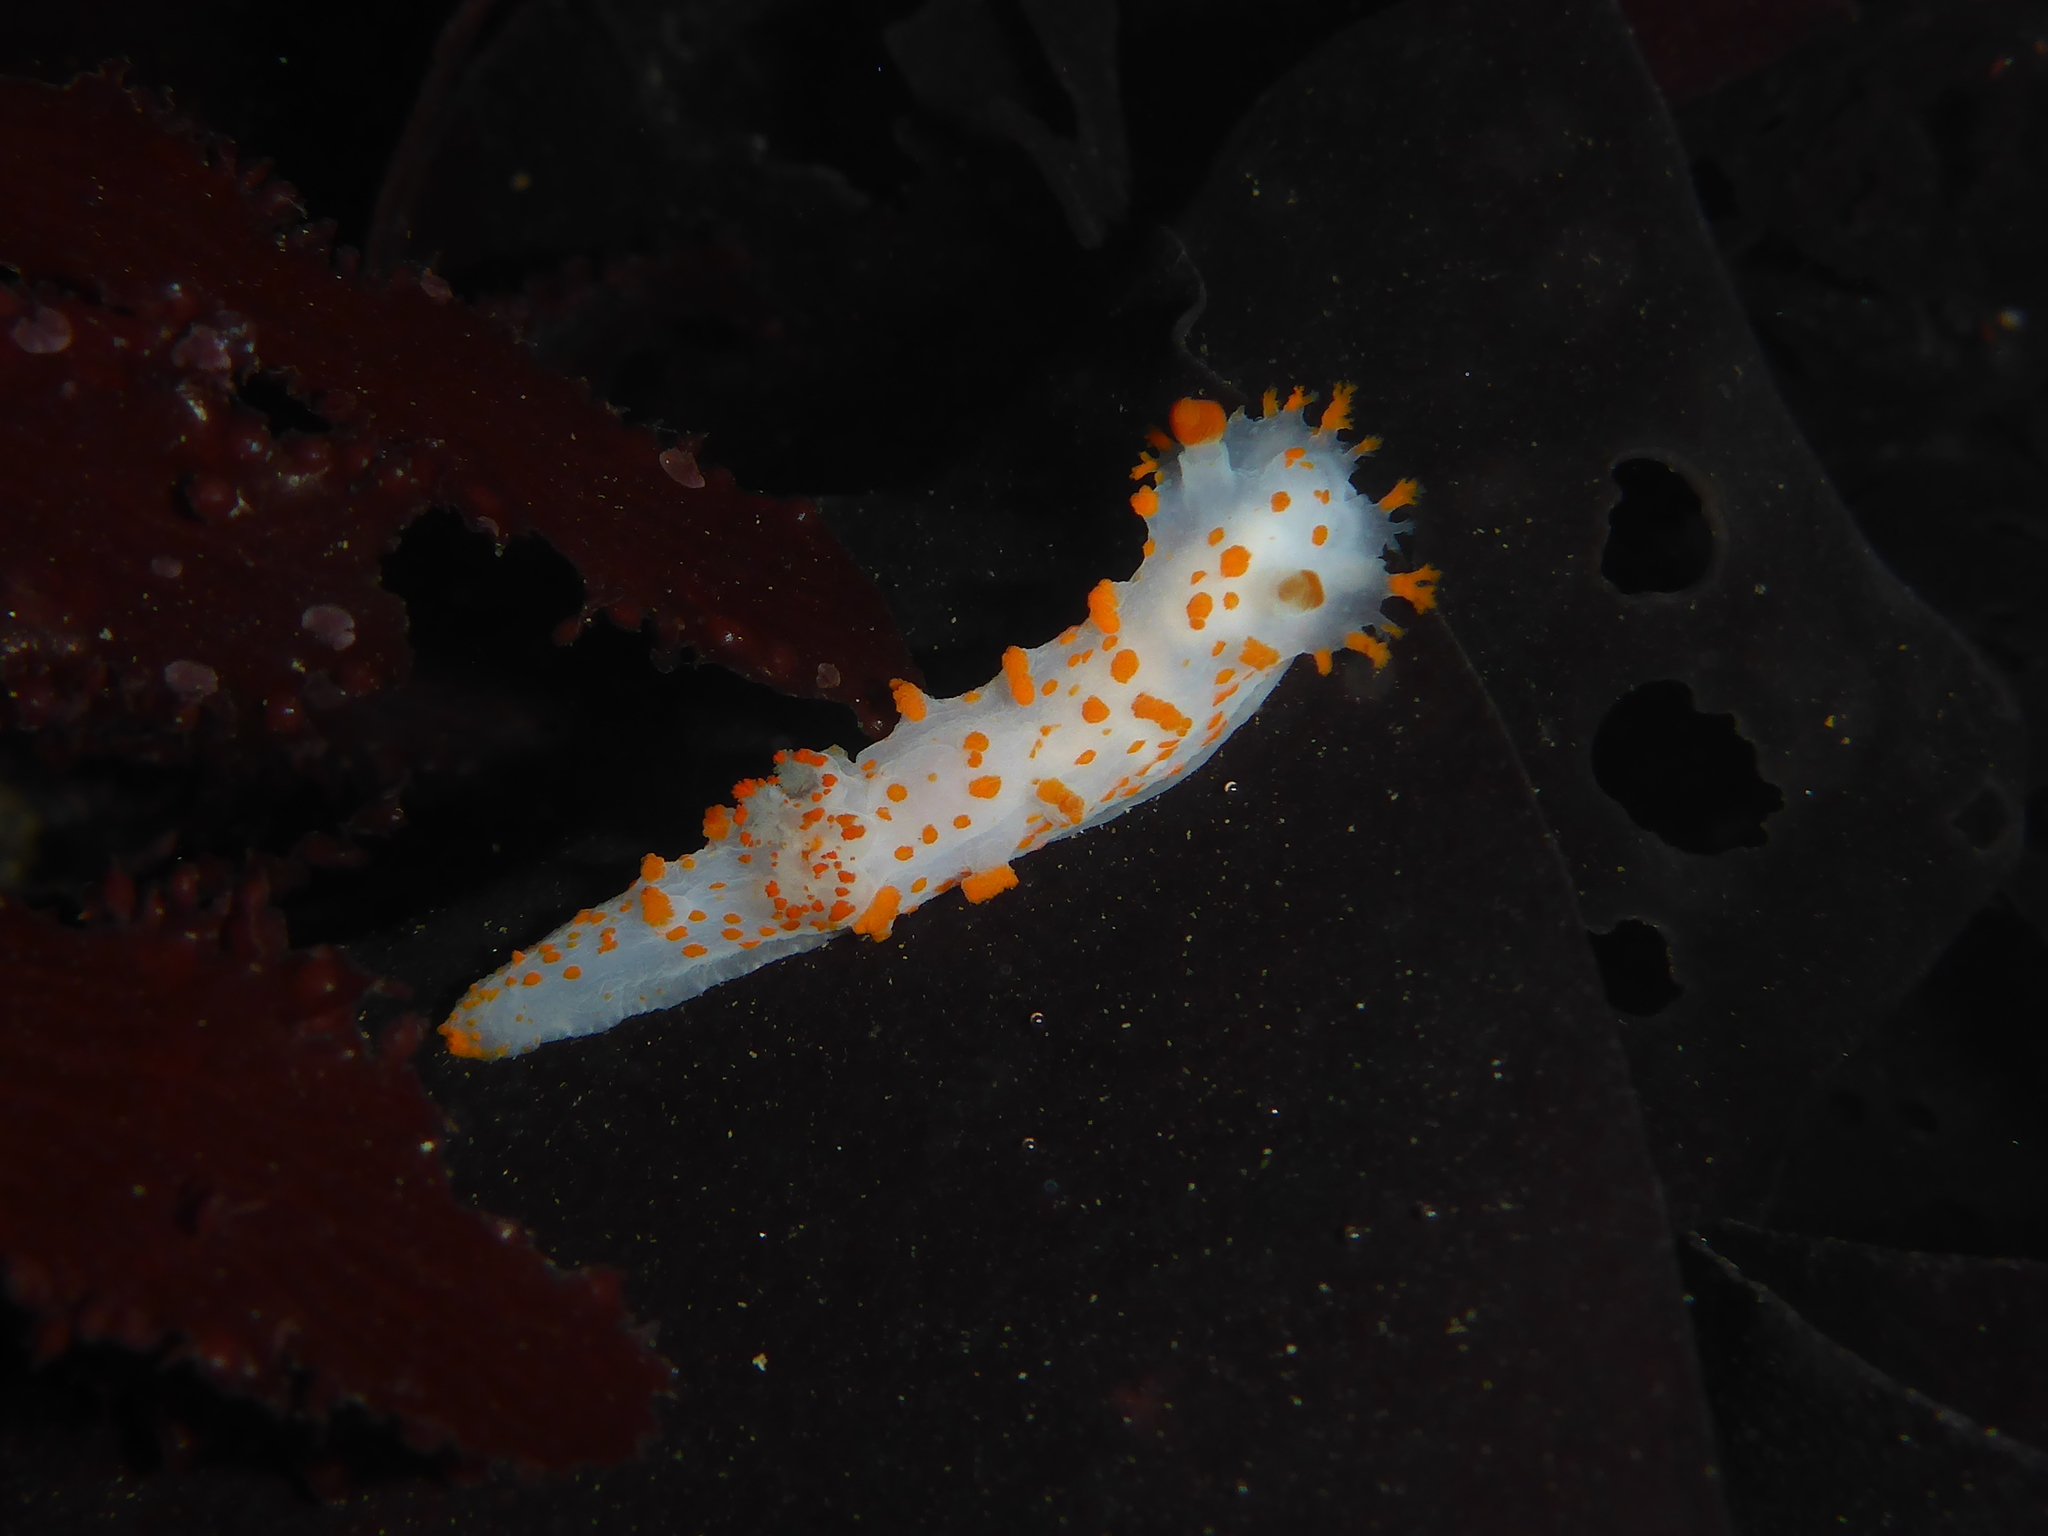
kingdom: Animalia
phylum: Mollusca
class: Gastropoda
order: Nudibranchia
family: Polyceridae
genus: Triopha
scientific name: Triopha catalinae
